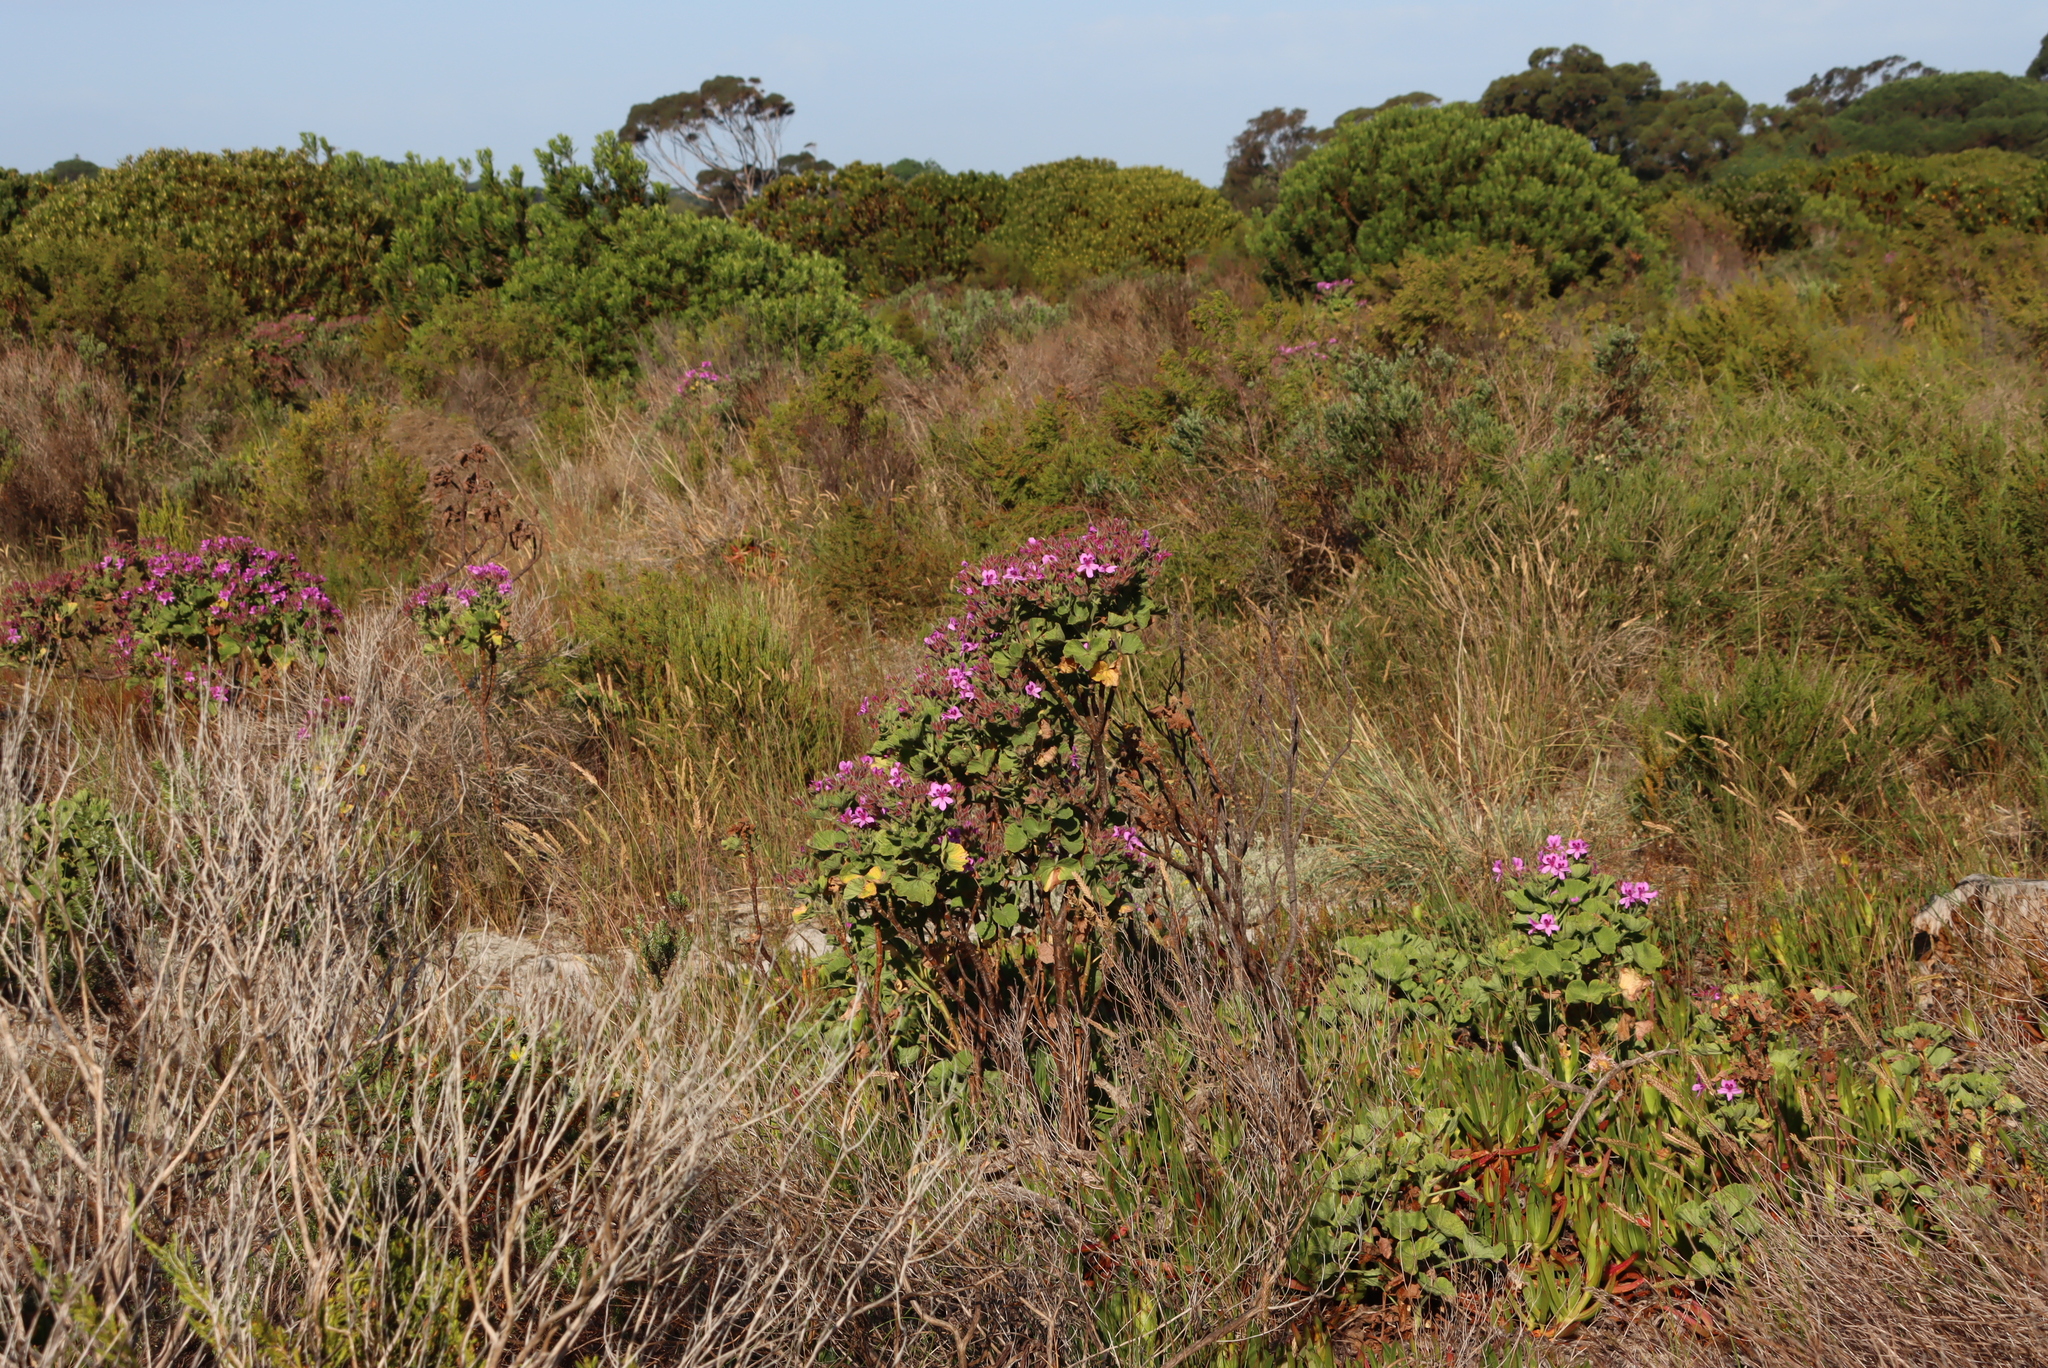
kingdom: Plantae
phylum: Tracheophyta
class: Magnoliopsida
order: Geraniales
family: Geraniaceae
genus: Pelargonium
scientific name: Pelargonium cucullatum
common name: Tree pelargonium
